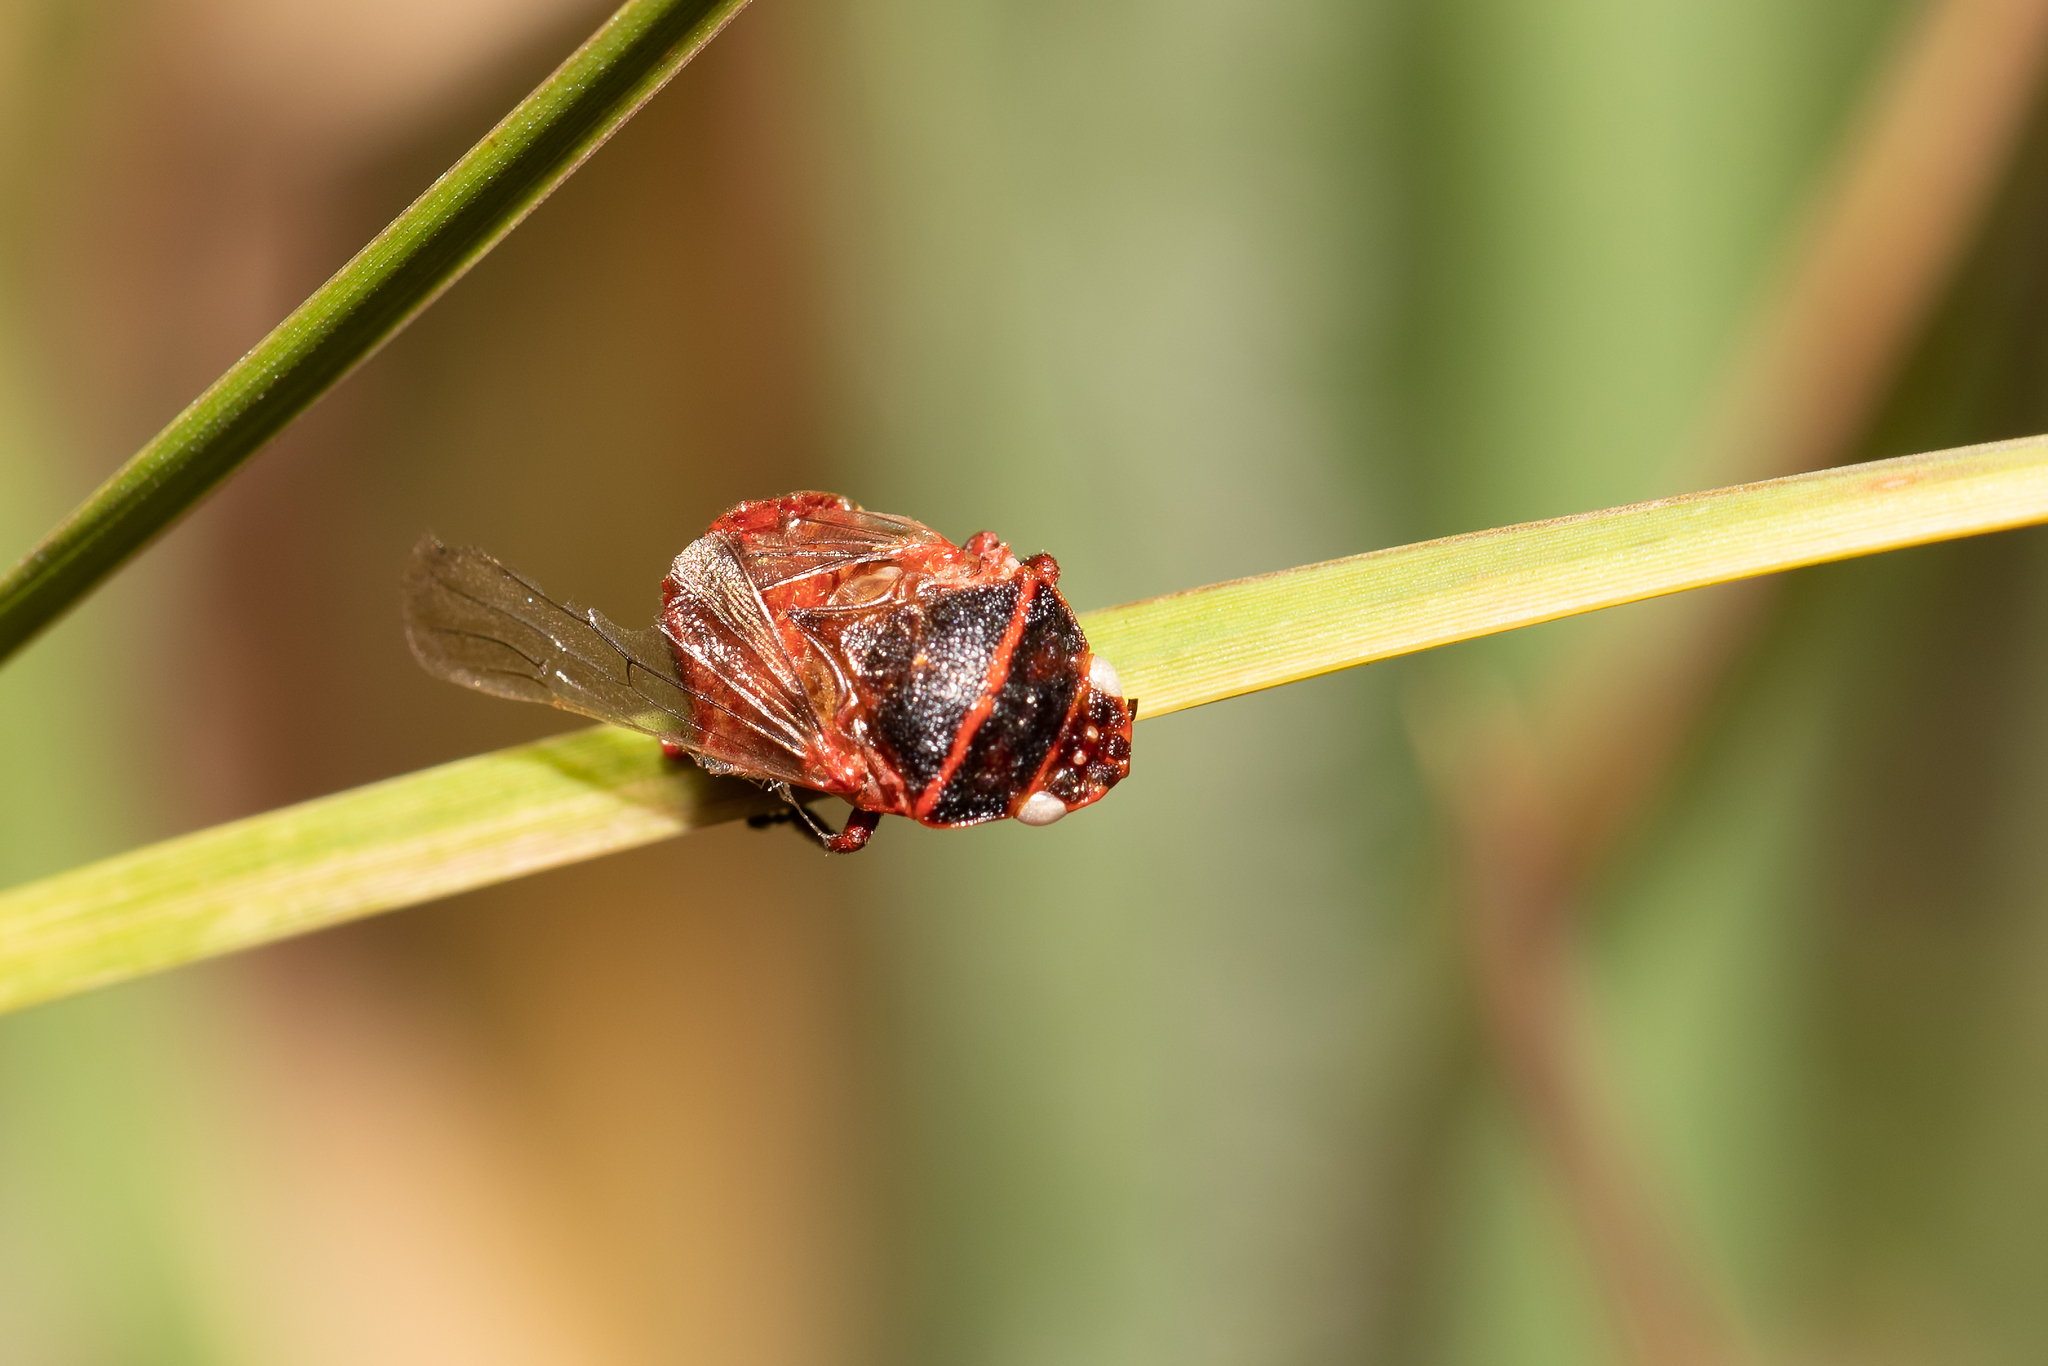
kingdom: Animalia
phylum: Arthropoda
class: Insecta
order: Hemiptera
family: Cercopidae
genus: Prosapia
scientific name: Prosapia bicincta
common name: Twolined spittlebug
